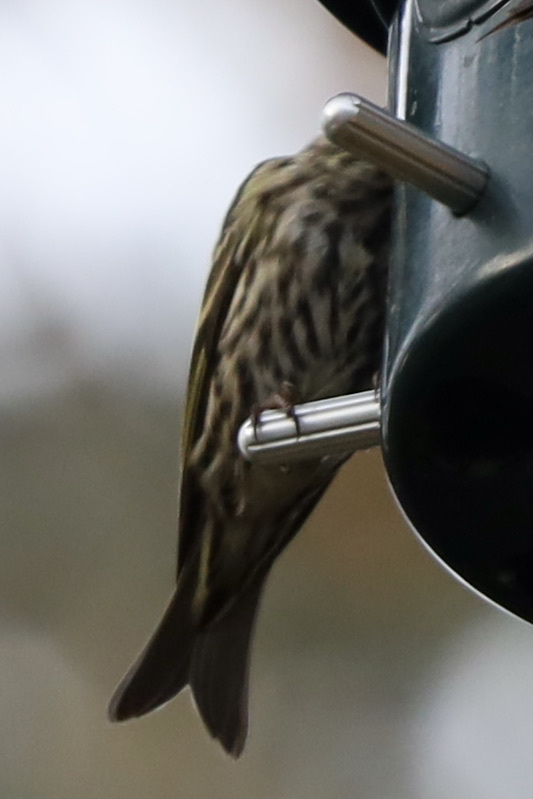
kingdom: Animalia
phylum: Chordata
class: Aves
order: Passeriformes
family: Fringillidae
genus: Spinus
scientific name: Spinus pinus
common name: Pine siskin
